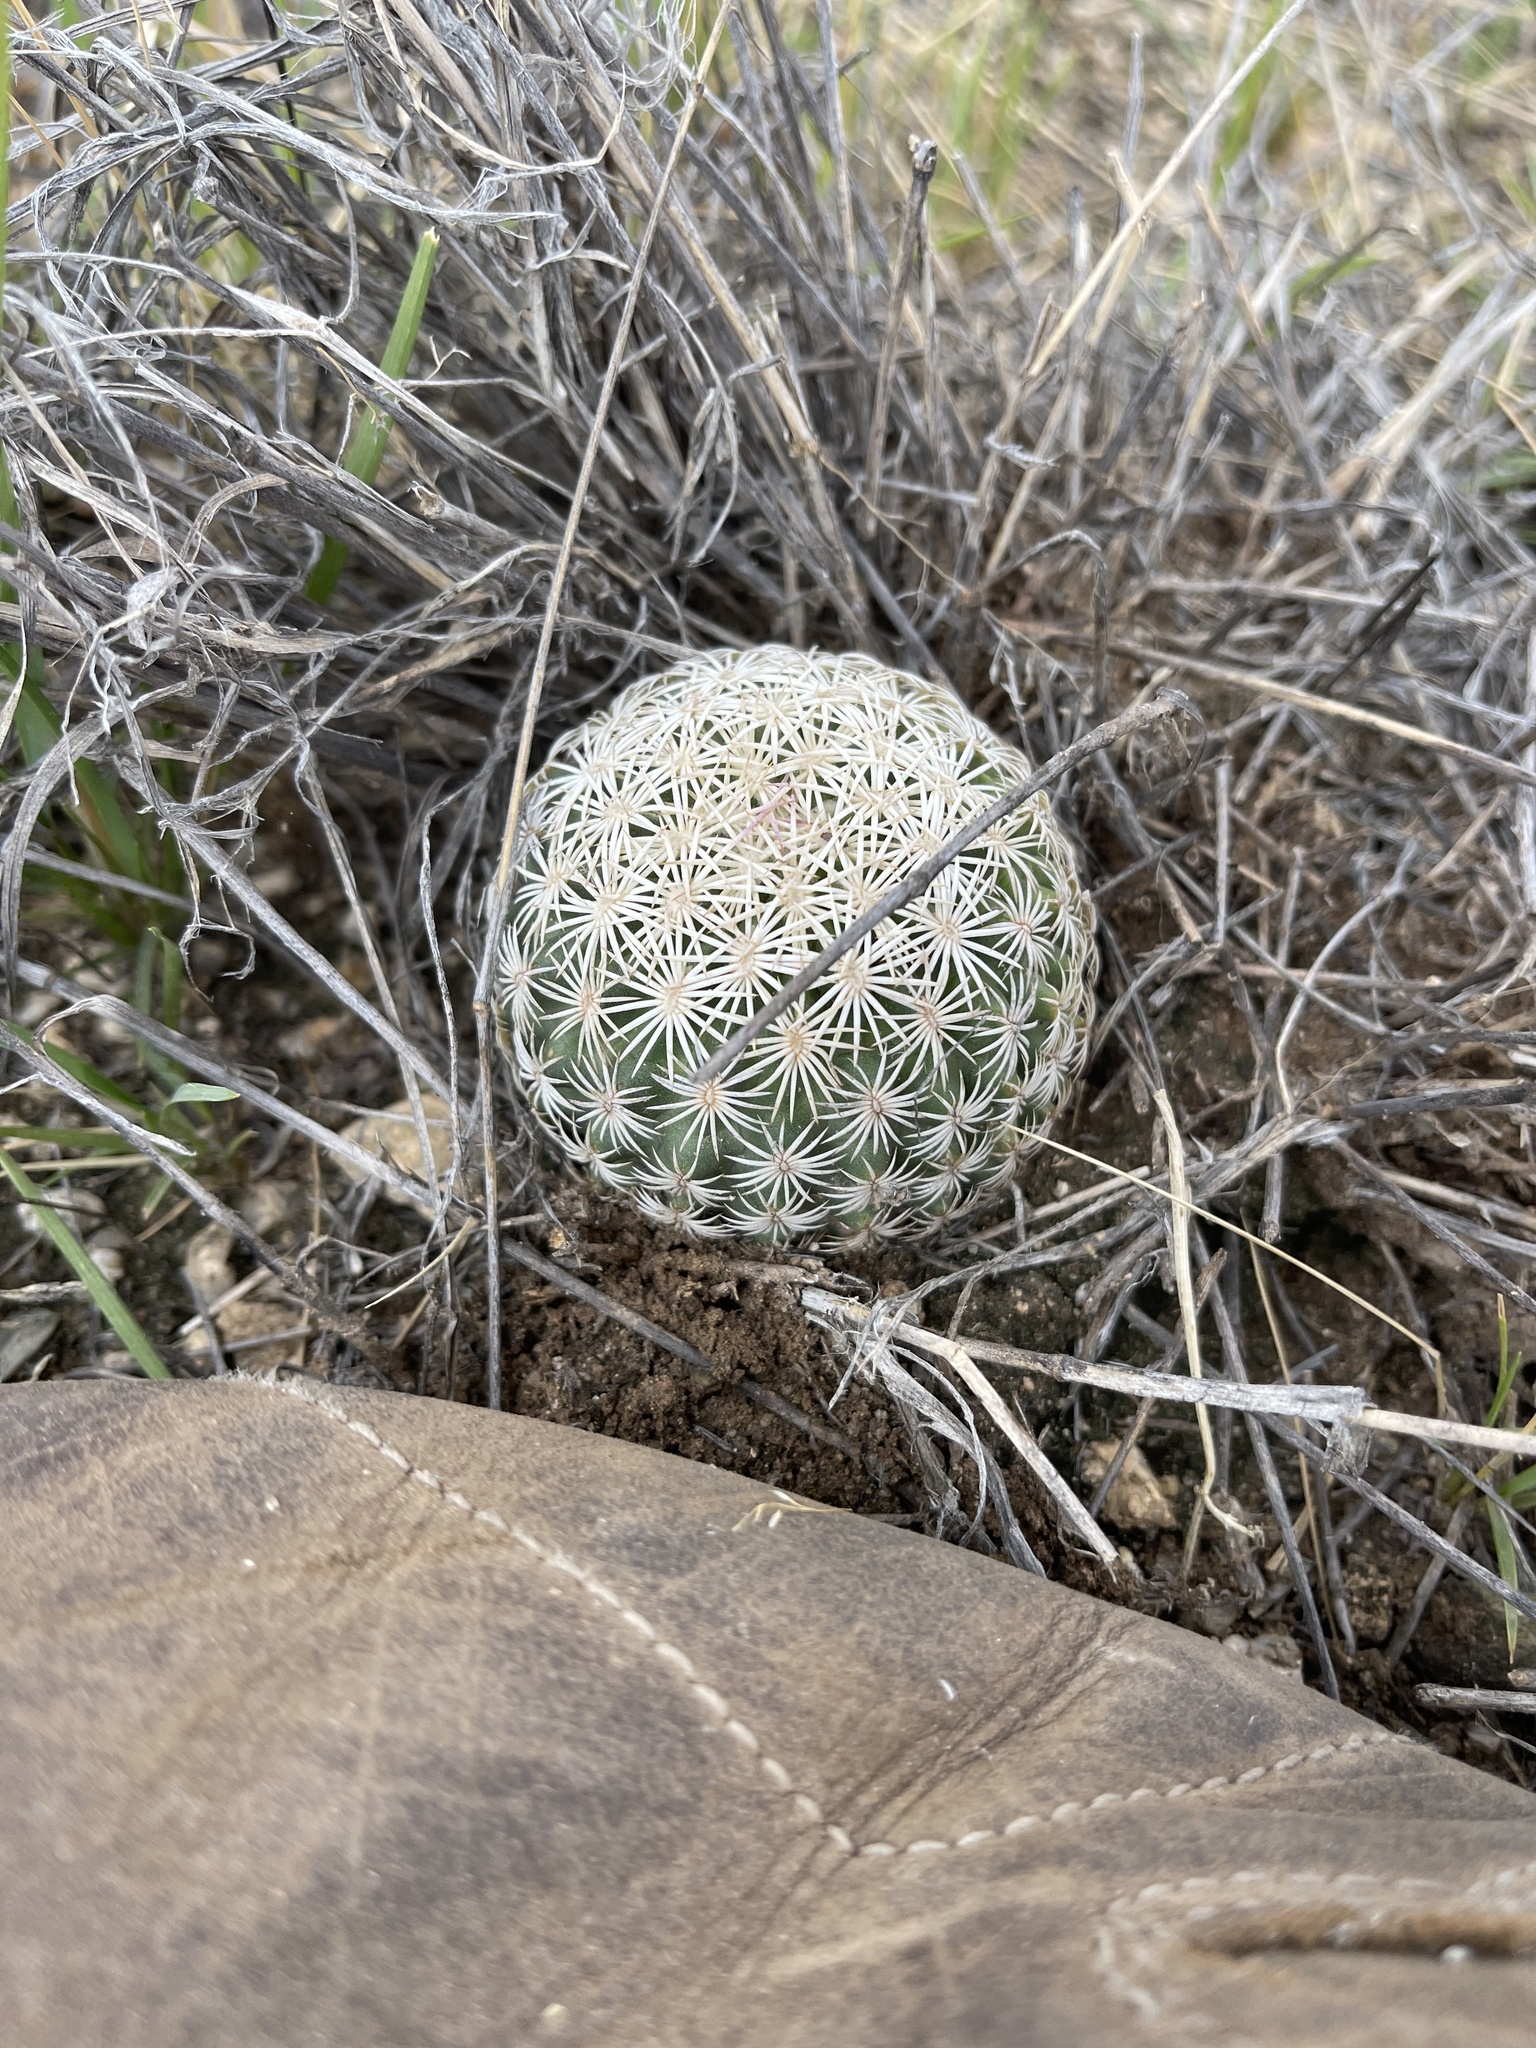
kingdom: Plantae
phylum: Tracheophyta
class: Magnoliopsida
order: Caryophyllales
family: Cactaceae
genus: Sclerocactus
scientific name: Sclerocactus johnsonii
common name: Eight-spine fishhook cactus
